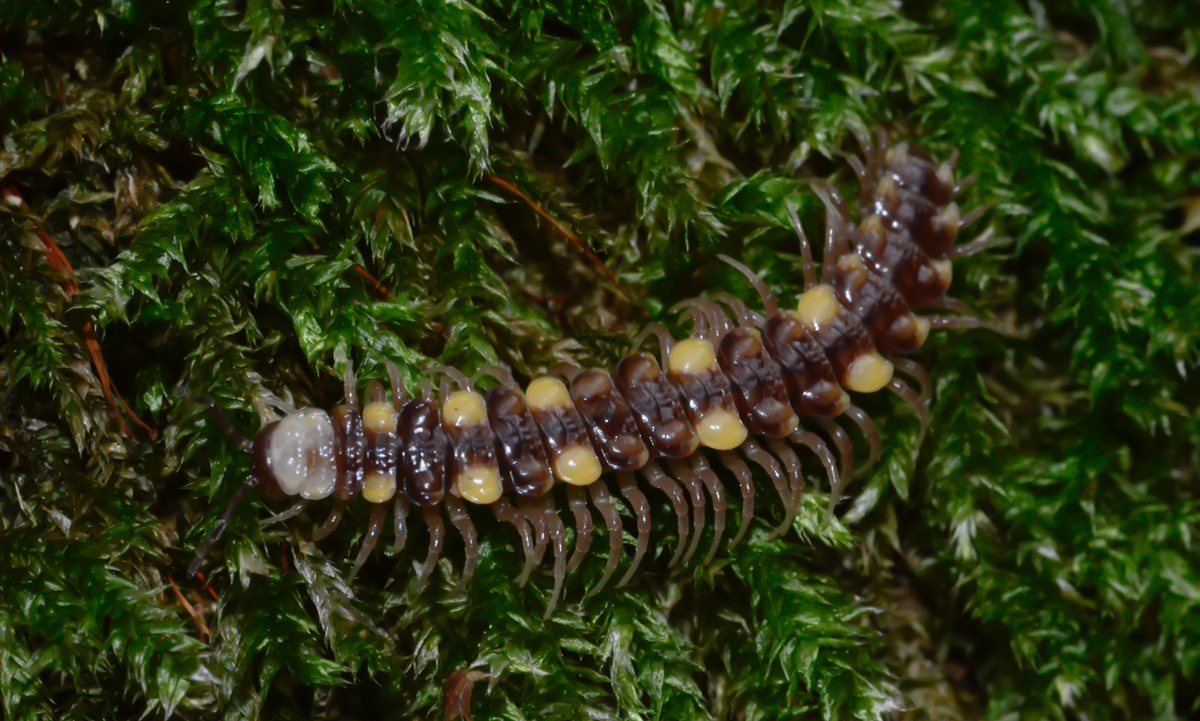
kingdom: Animalia
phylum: Arthropoda
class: Diplopoda
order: Polydesmida
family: Polydesmidae
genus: Polydesmus
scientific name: Polydesmus collaris
